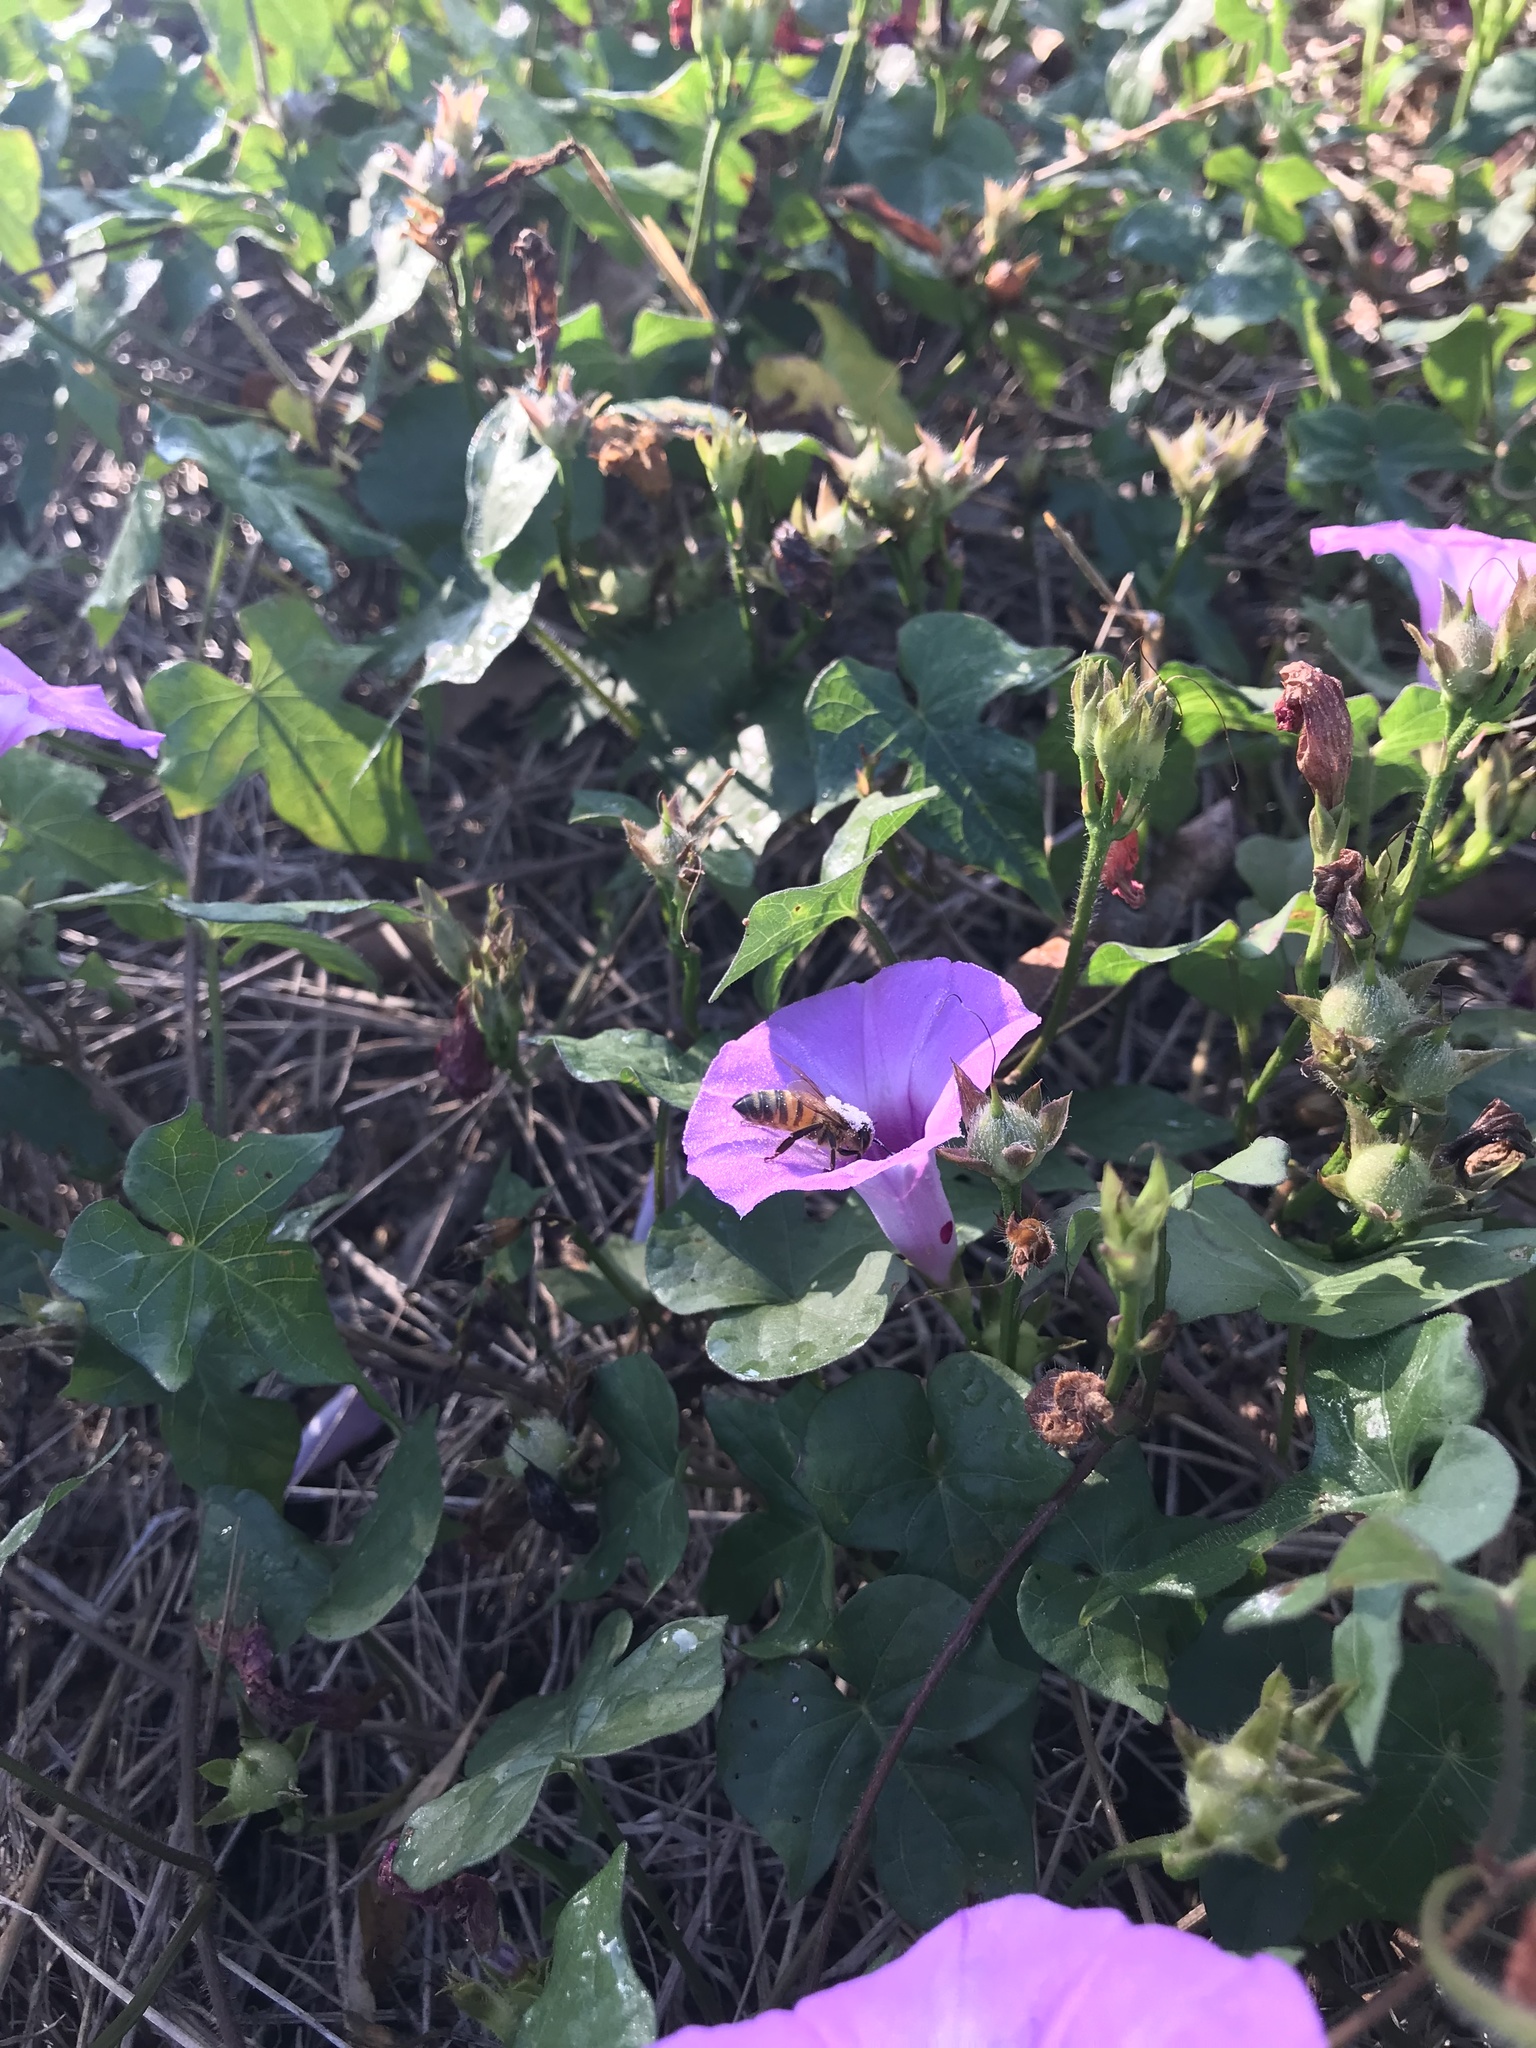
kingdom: Animalia
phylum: Arthropoda
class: Insecta
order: Hymenoptera
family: Apidae
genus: Apis
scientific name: Apis mellifera
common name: Honey bee
